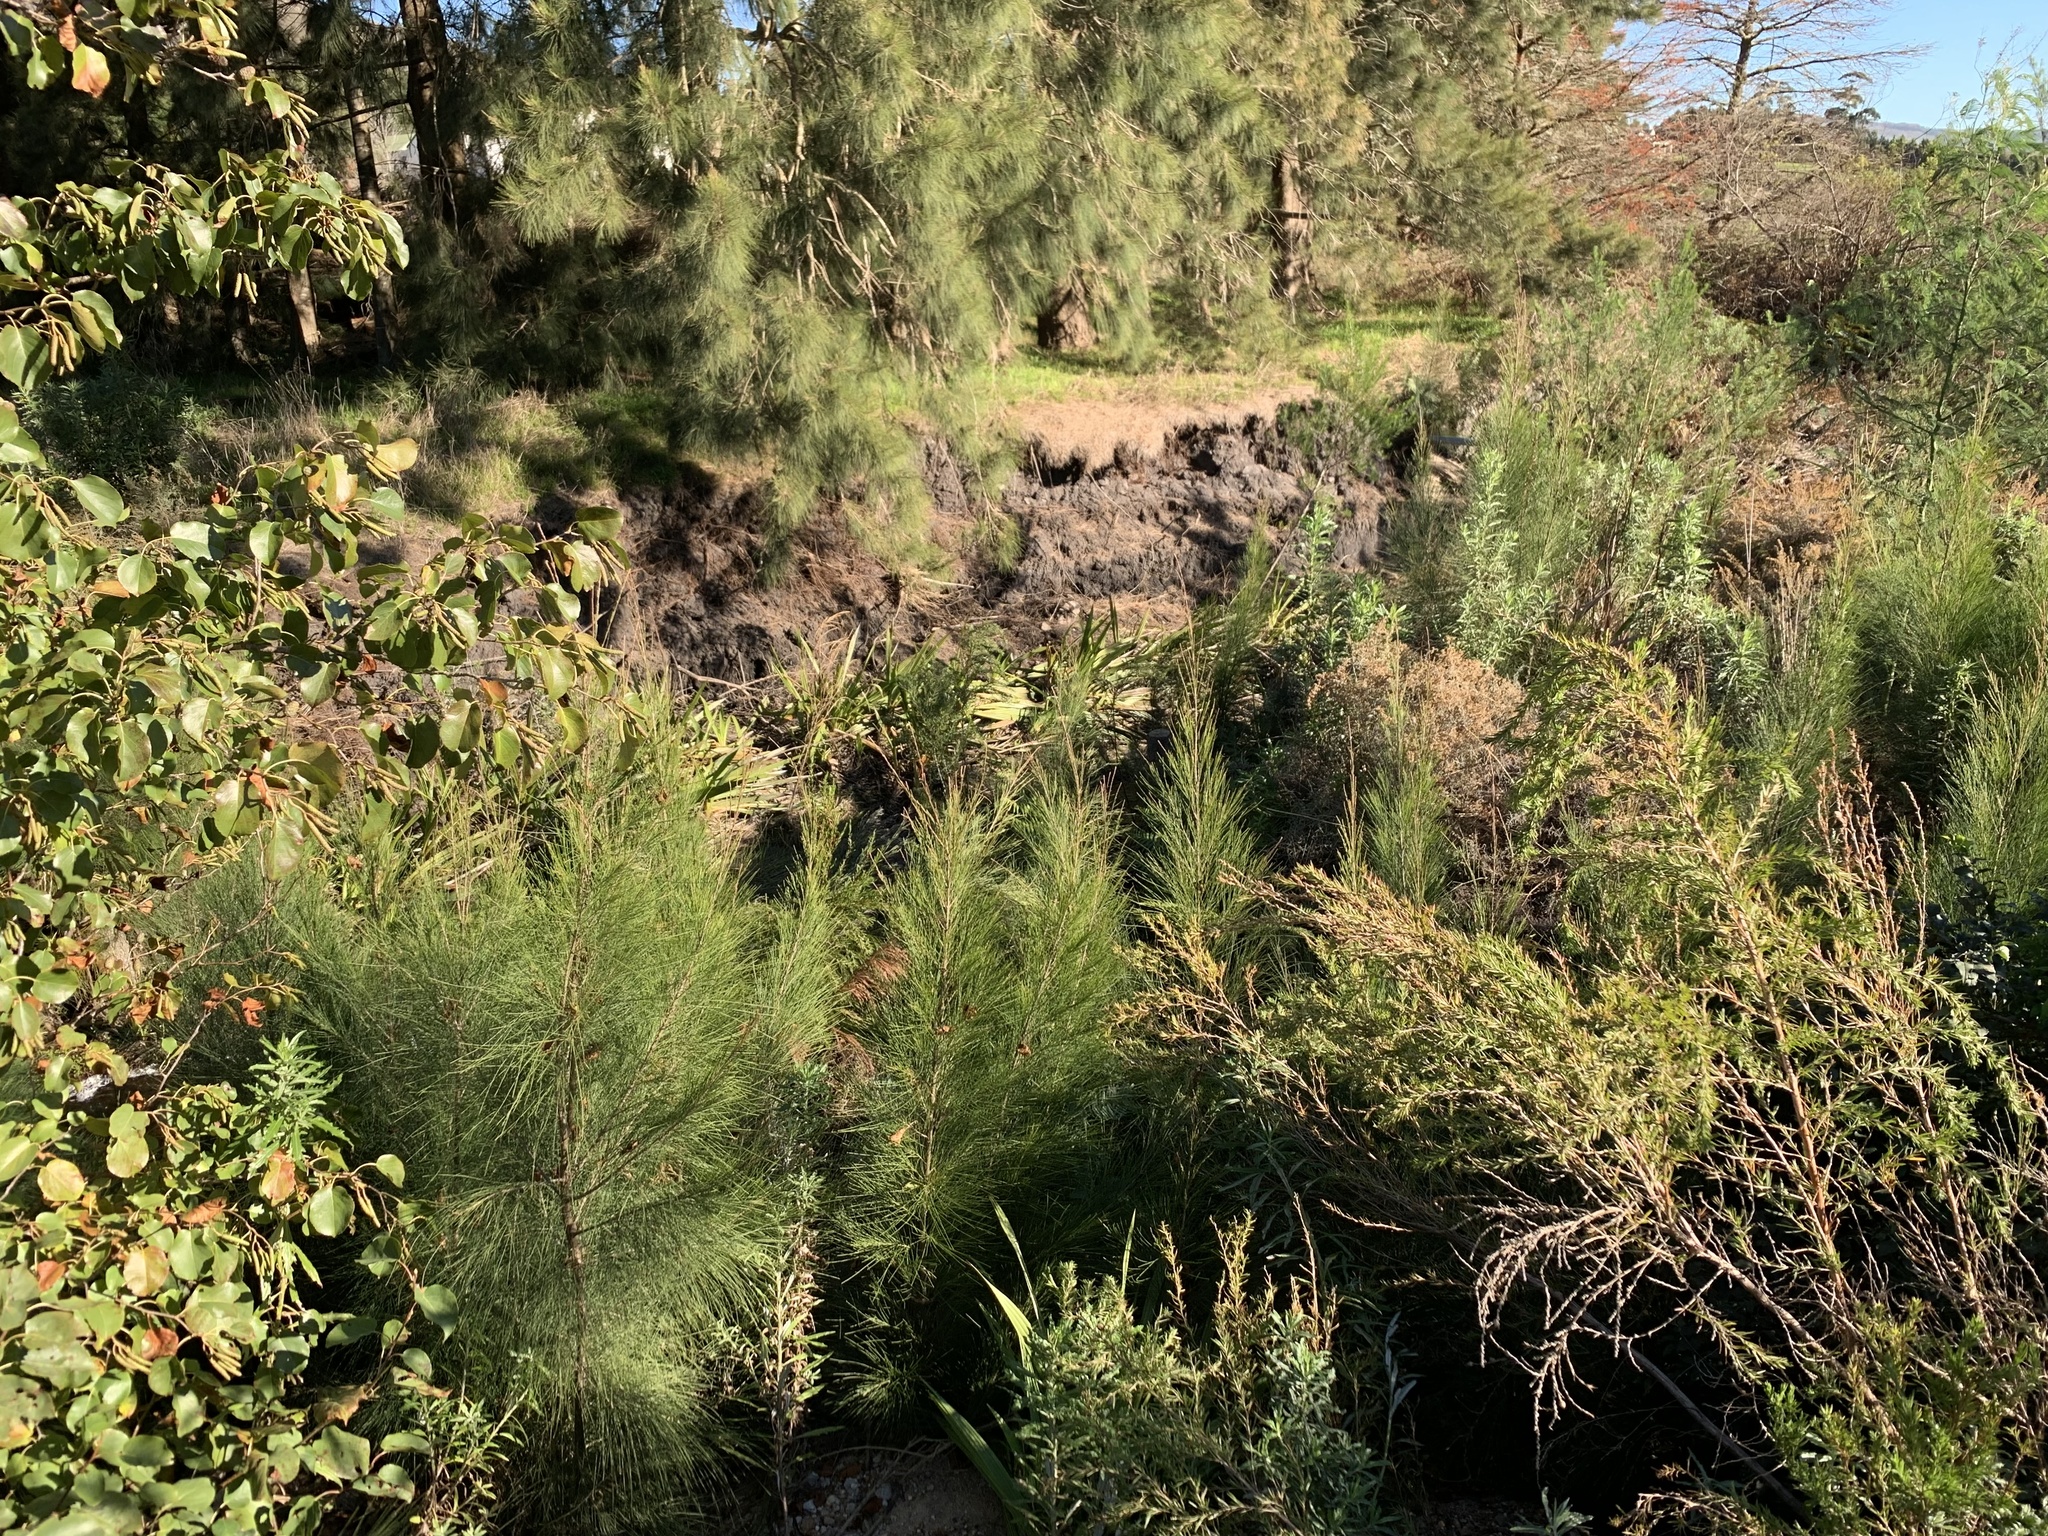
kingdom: Plantae
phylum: Tracheophyta
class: Magnoliopsida
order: Fagales
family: Casuarinaceae
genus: Casuarina
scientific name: Casuarina cunninghamiana
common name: River sheoak
